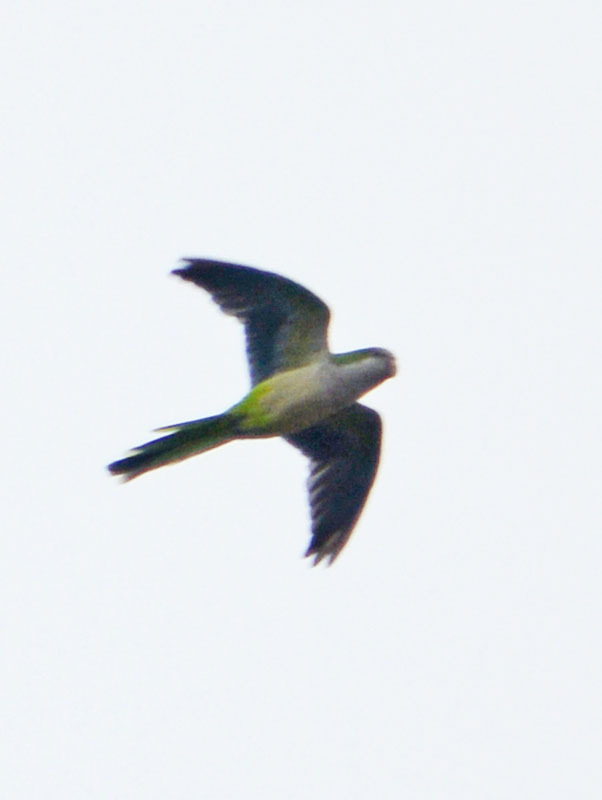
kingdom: Animalia
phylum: Chordata
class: Aves
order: Psittaciformes
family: Psittacidae
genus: Myiopsitta
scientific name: Myiopsitta monachus
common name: Monk parakeet
